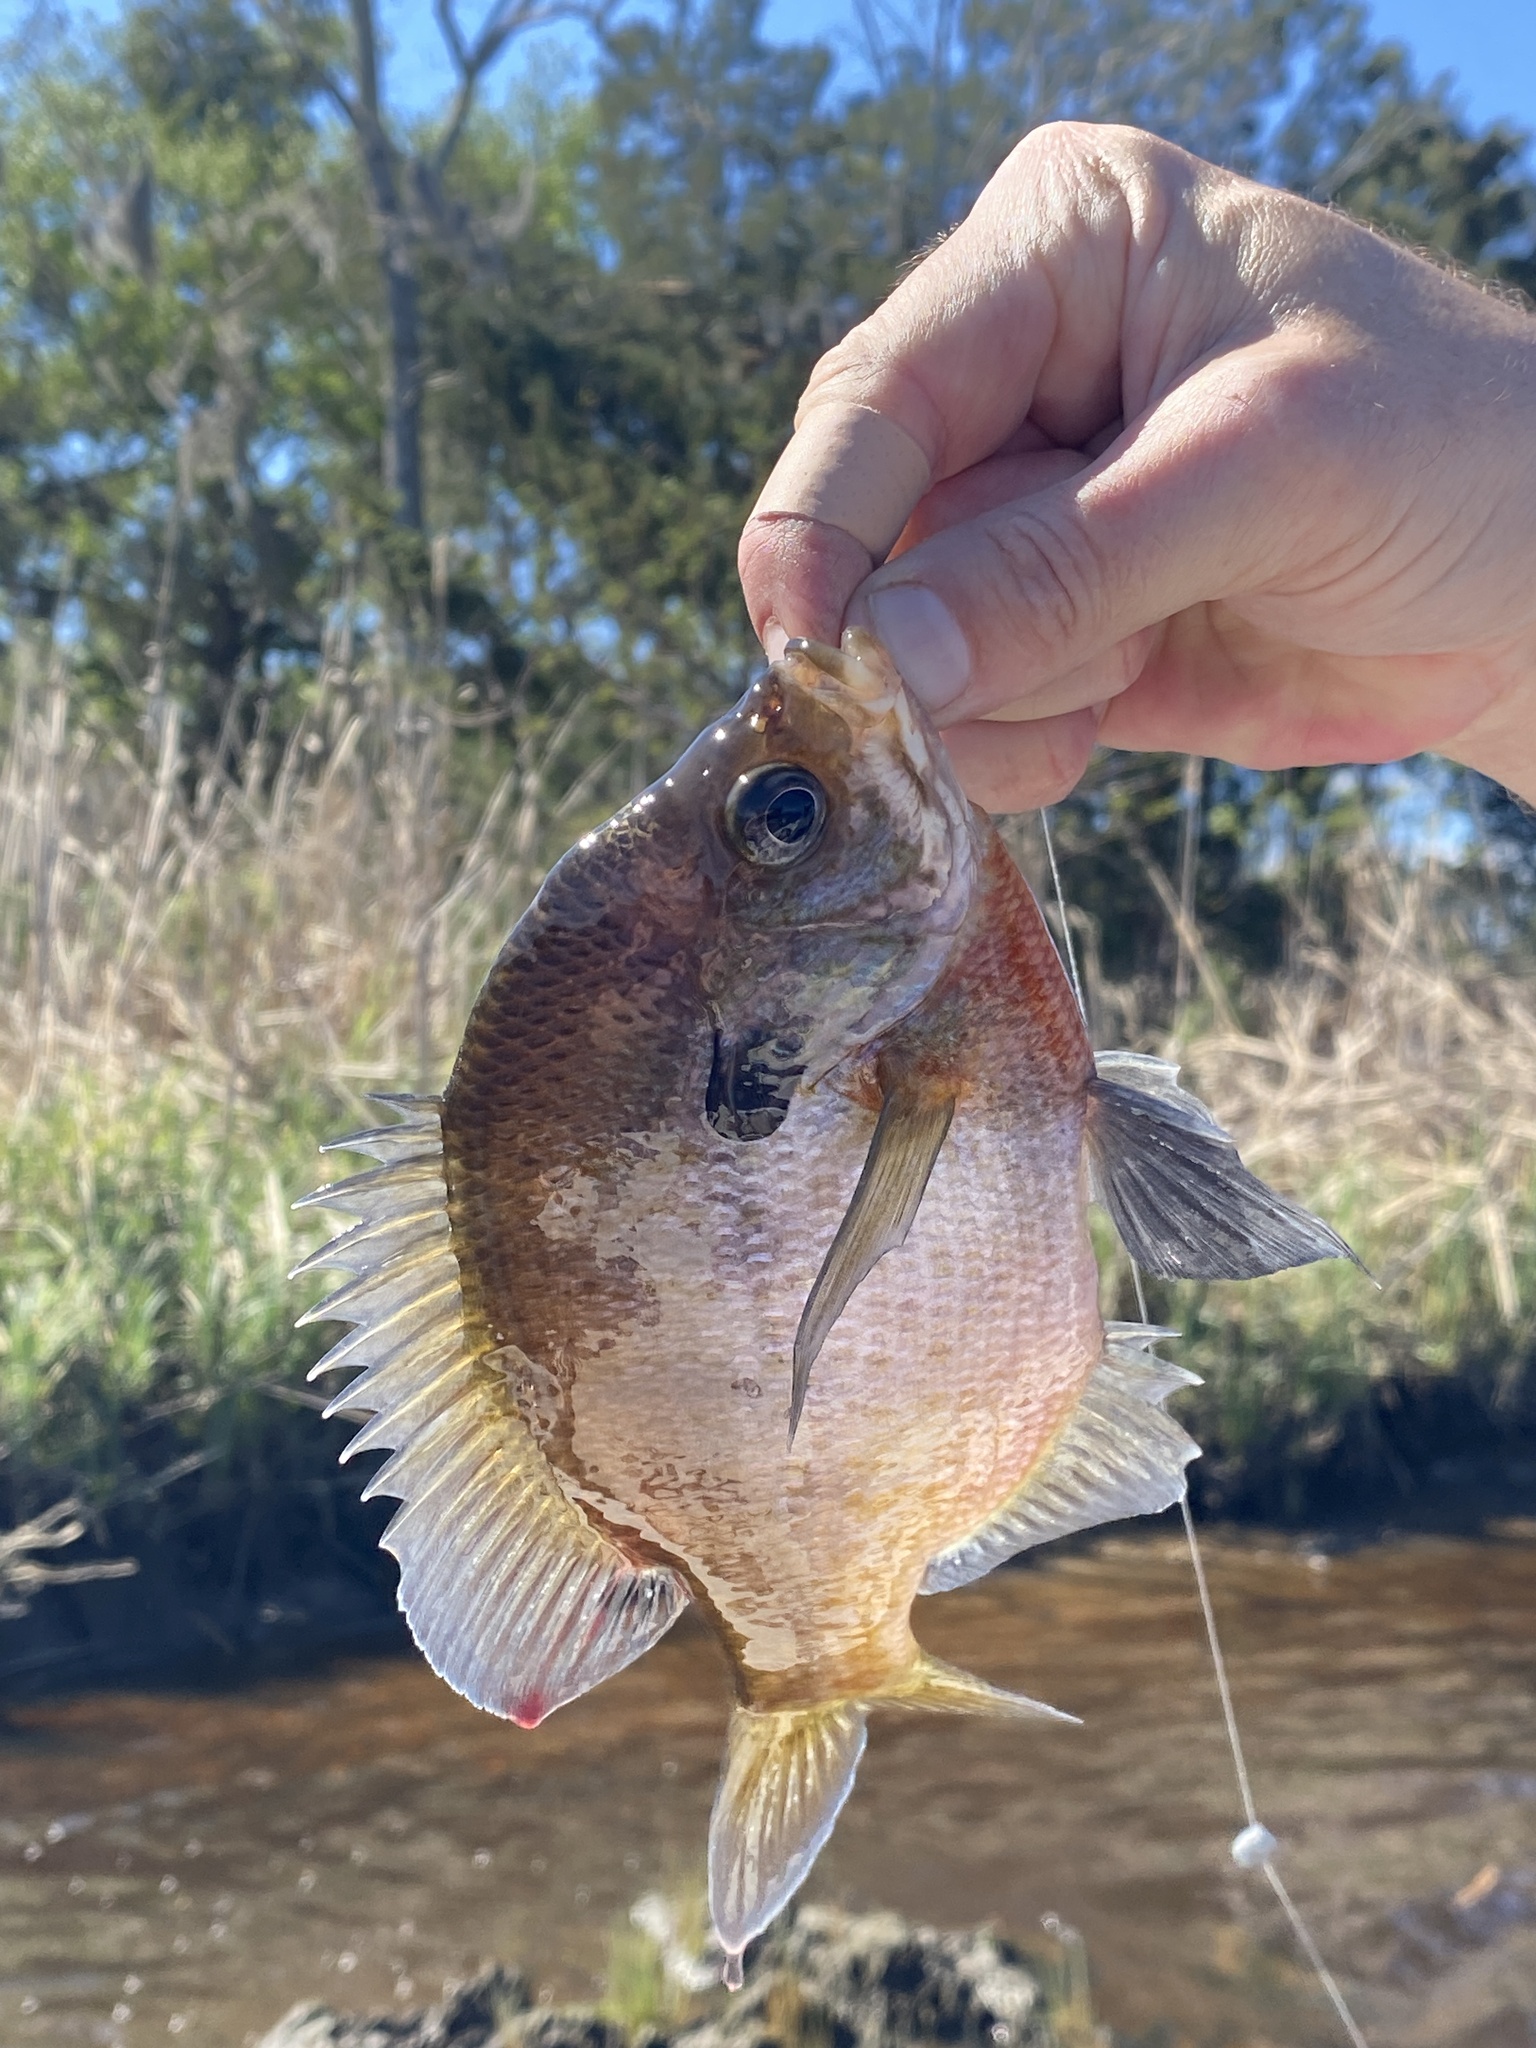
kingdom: Animalia
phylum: Chordata
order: Perciformes
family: Centrarchidae
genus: Lepomis
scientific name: Lepomis macrochirus
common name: Bluegill
